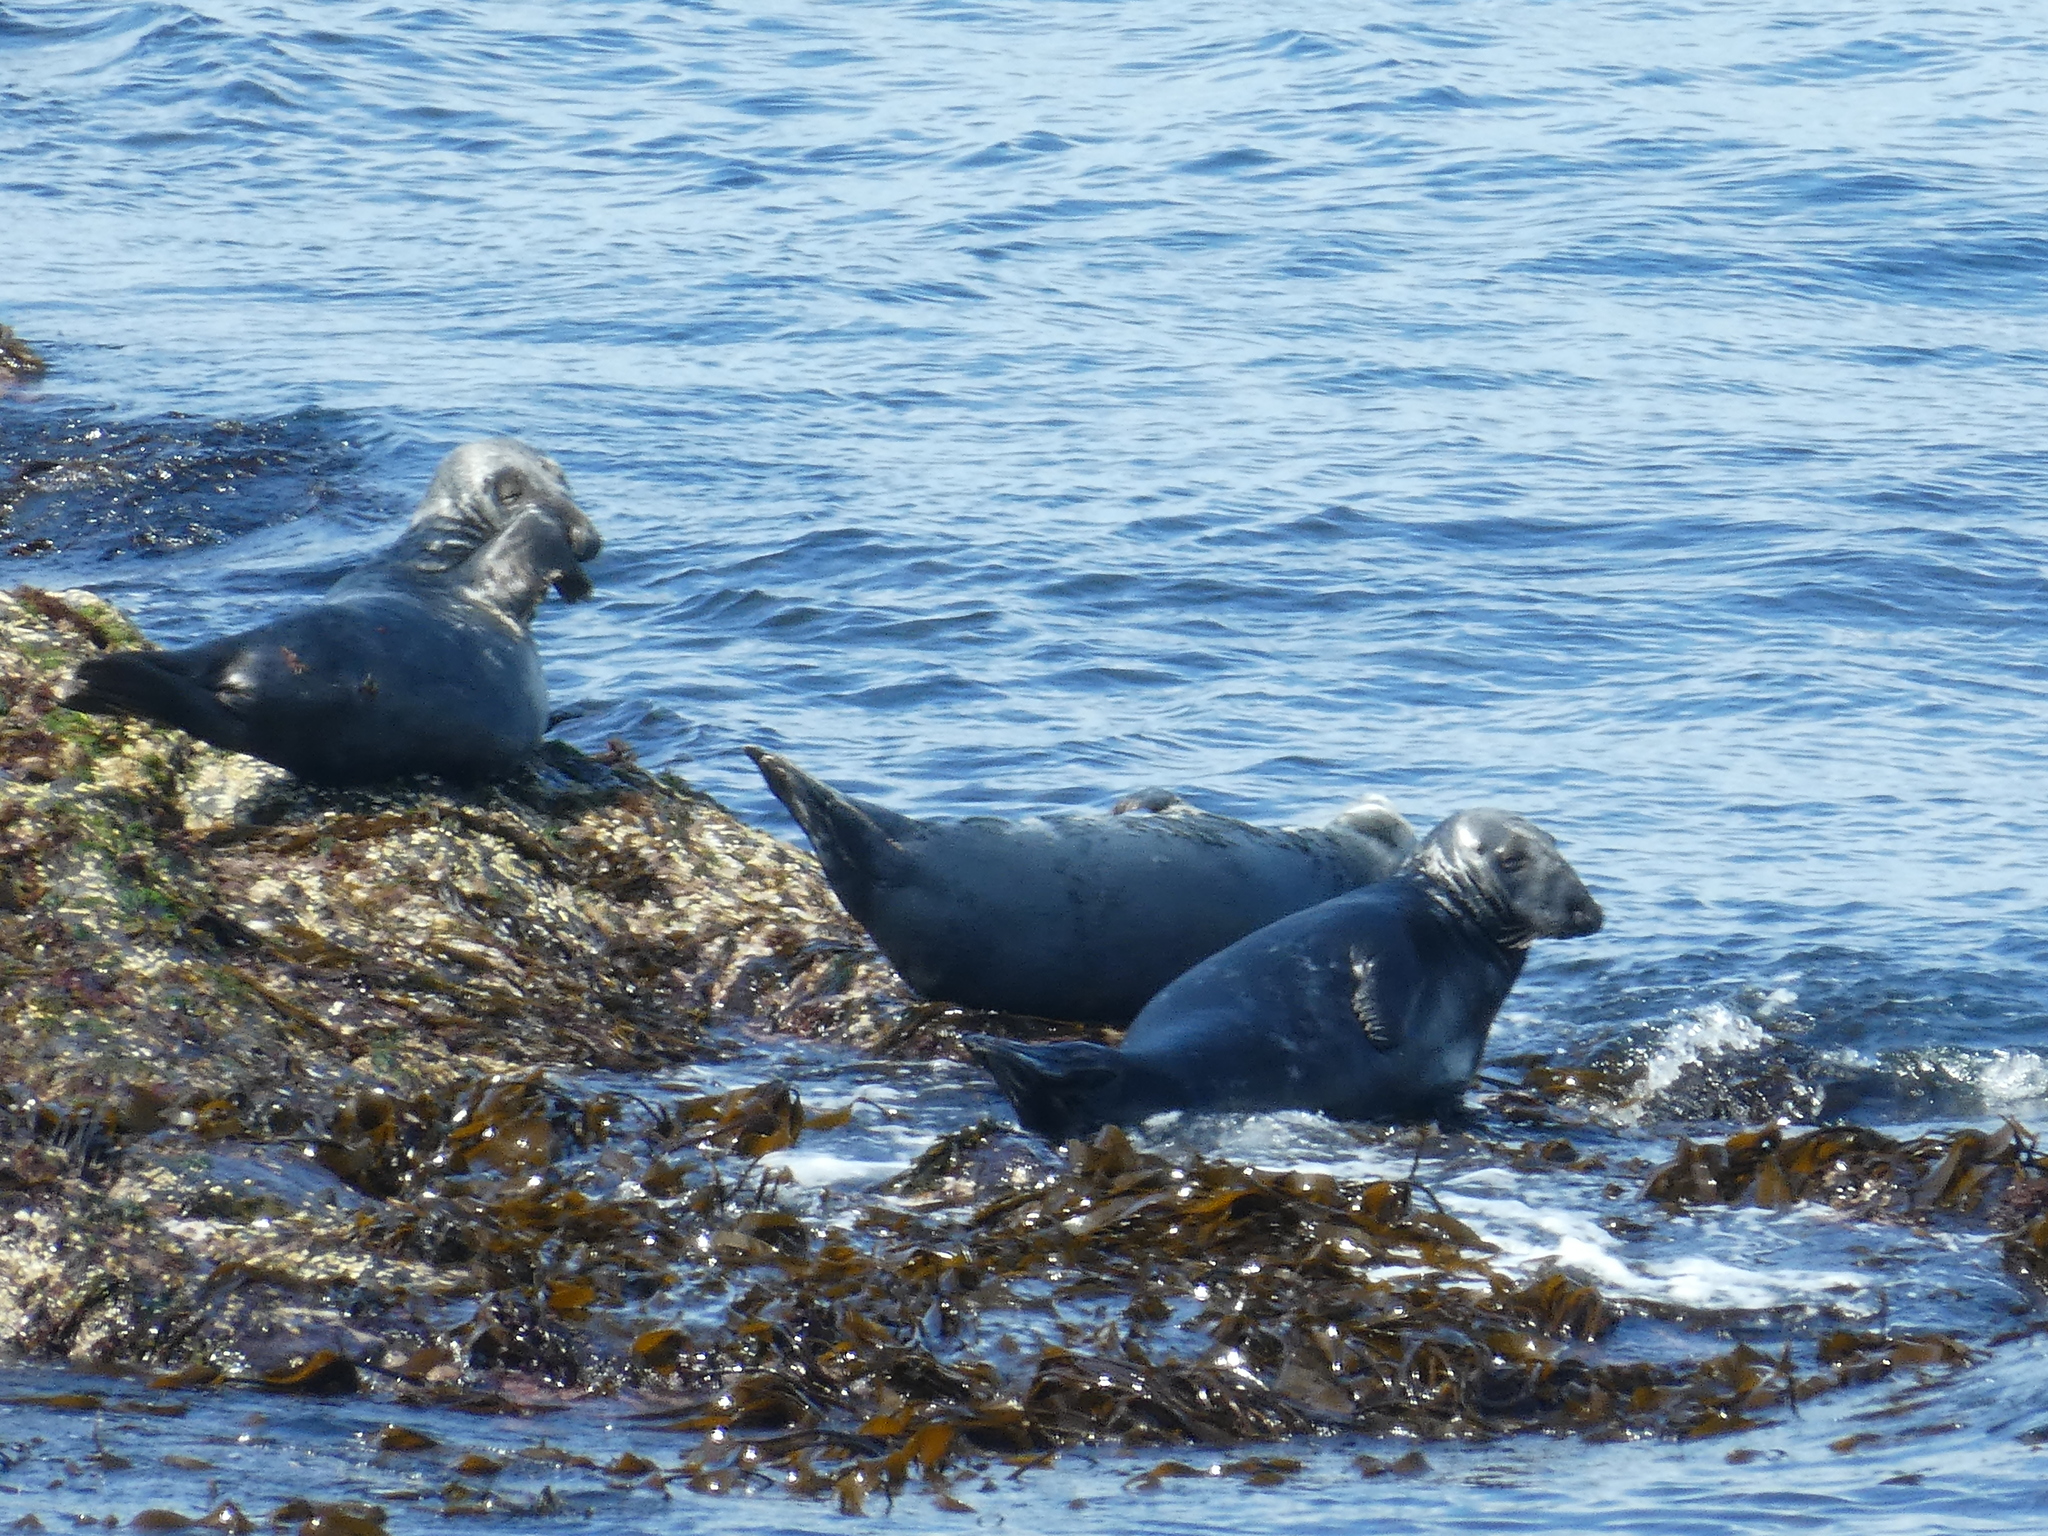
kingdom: Animalia
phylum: Chordata
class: Mammalia
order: Carnivora
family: Phocidae
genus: Halichoerus
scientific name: Halichoerus grypus
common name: Grey seal
